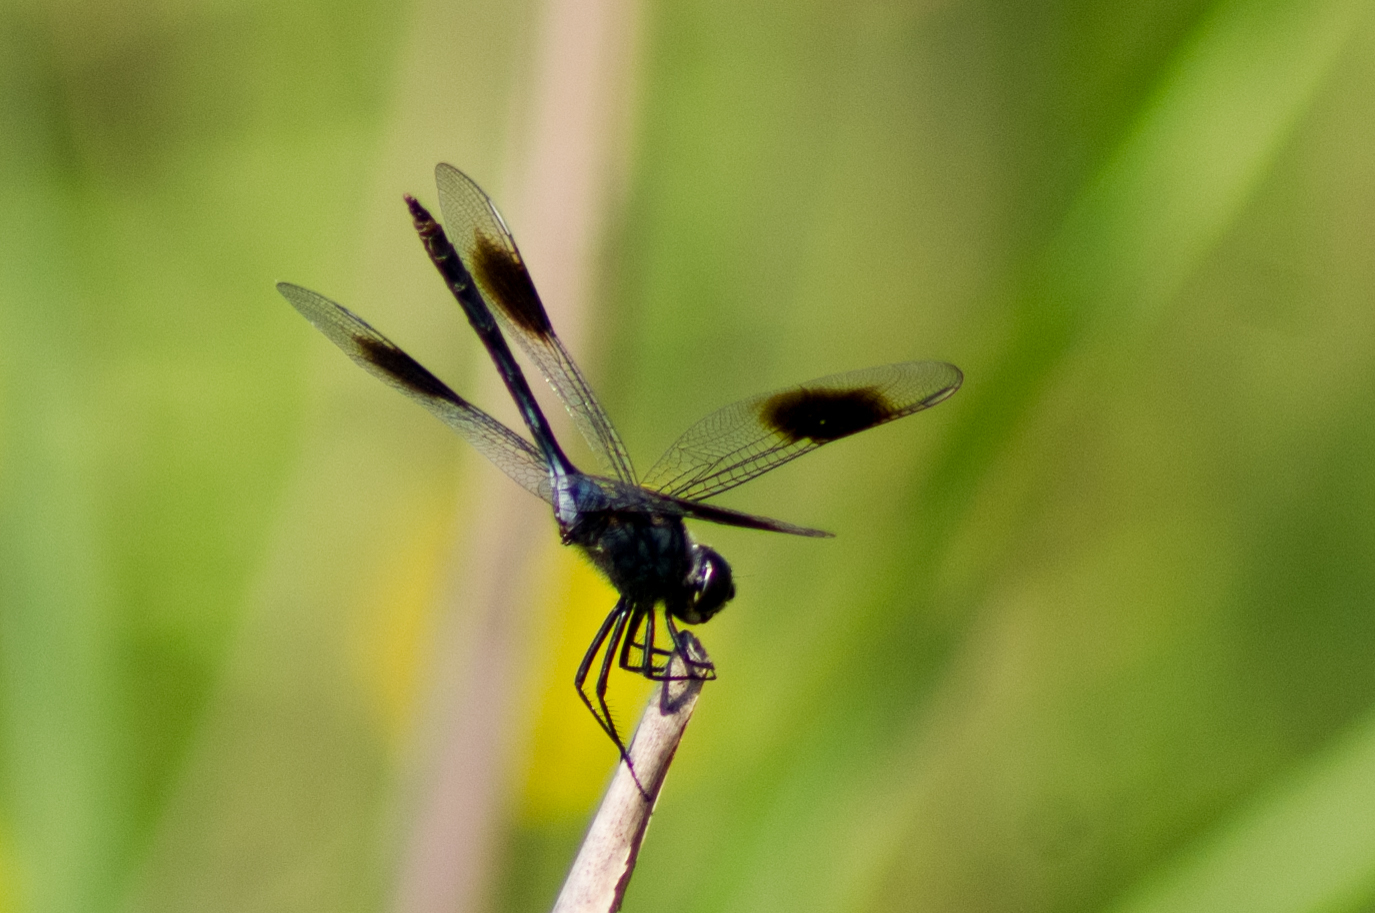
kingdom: Animalia
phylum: Arthropoda
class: Insecta
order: Odonata
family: Libellulidae
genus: Brachymesia
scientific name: Brachymesia gravida
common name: Four-spotted pennant
